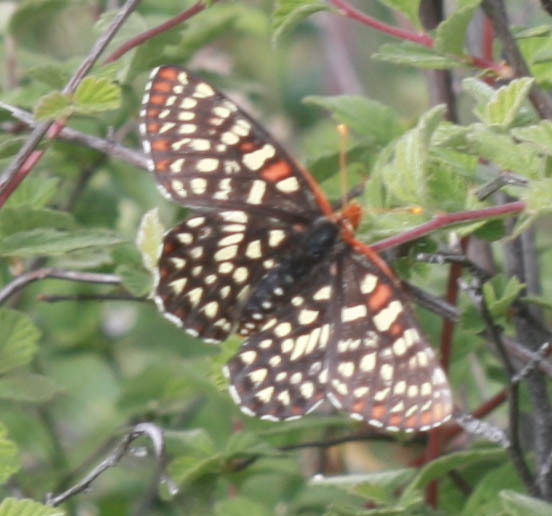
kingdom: Animalia
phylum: Arthropoda
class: Insecta
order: Lepidoptera
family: Nymphalidae
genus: Occidryas
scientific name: Occidryas chalcedona
